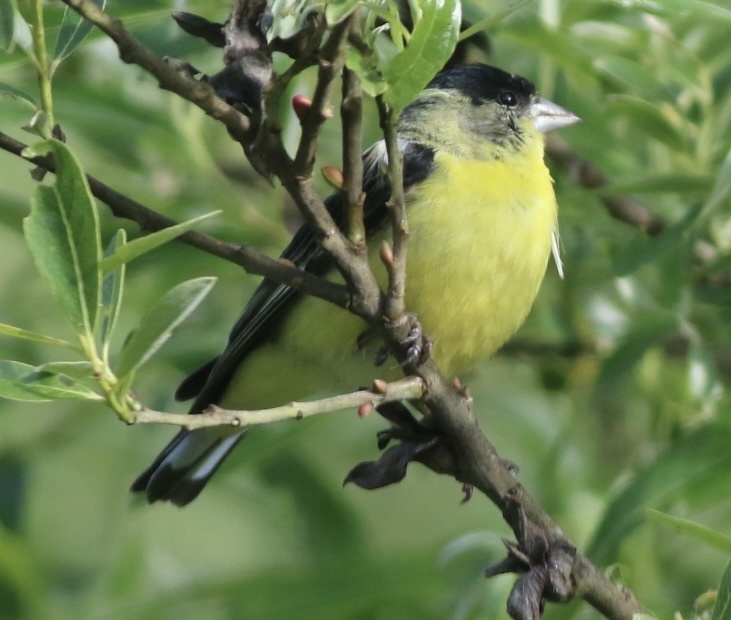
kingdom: Animalia
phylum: Chordata
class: Aves
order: Passeriformes
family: Fringillidae
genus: Spinus
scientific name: Spinus psaltria
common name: Lesser goldfinch
